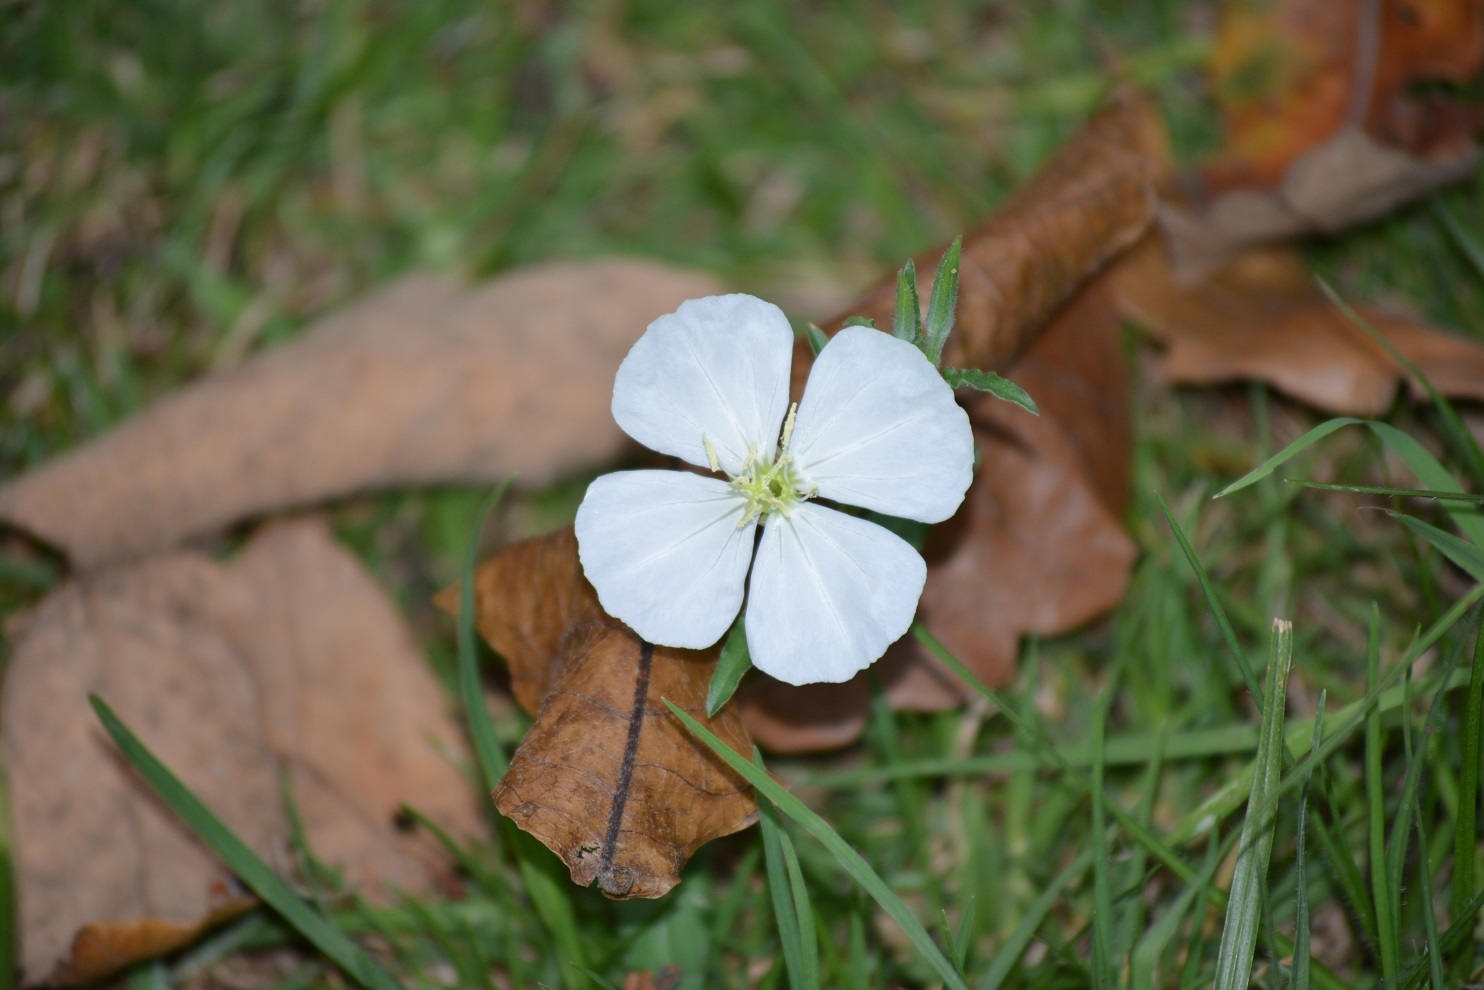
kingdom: Plantae
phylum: Tracheophyta
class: Magnoliopsida
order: Myrtales
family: Onagraceae
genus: Oenothera
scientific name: Oenothera kunthiana
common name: Kunth's evening-primrose
